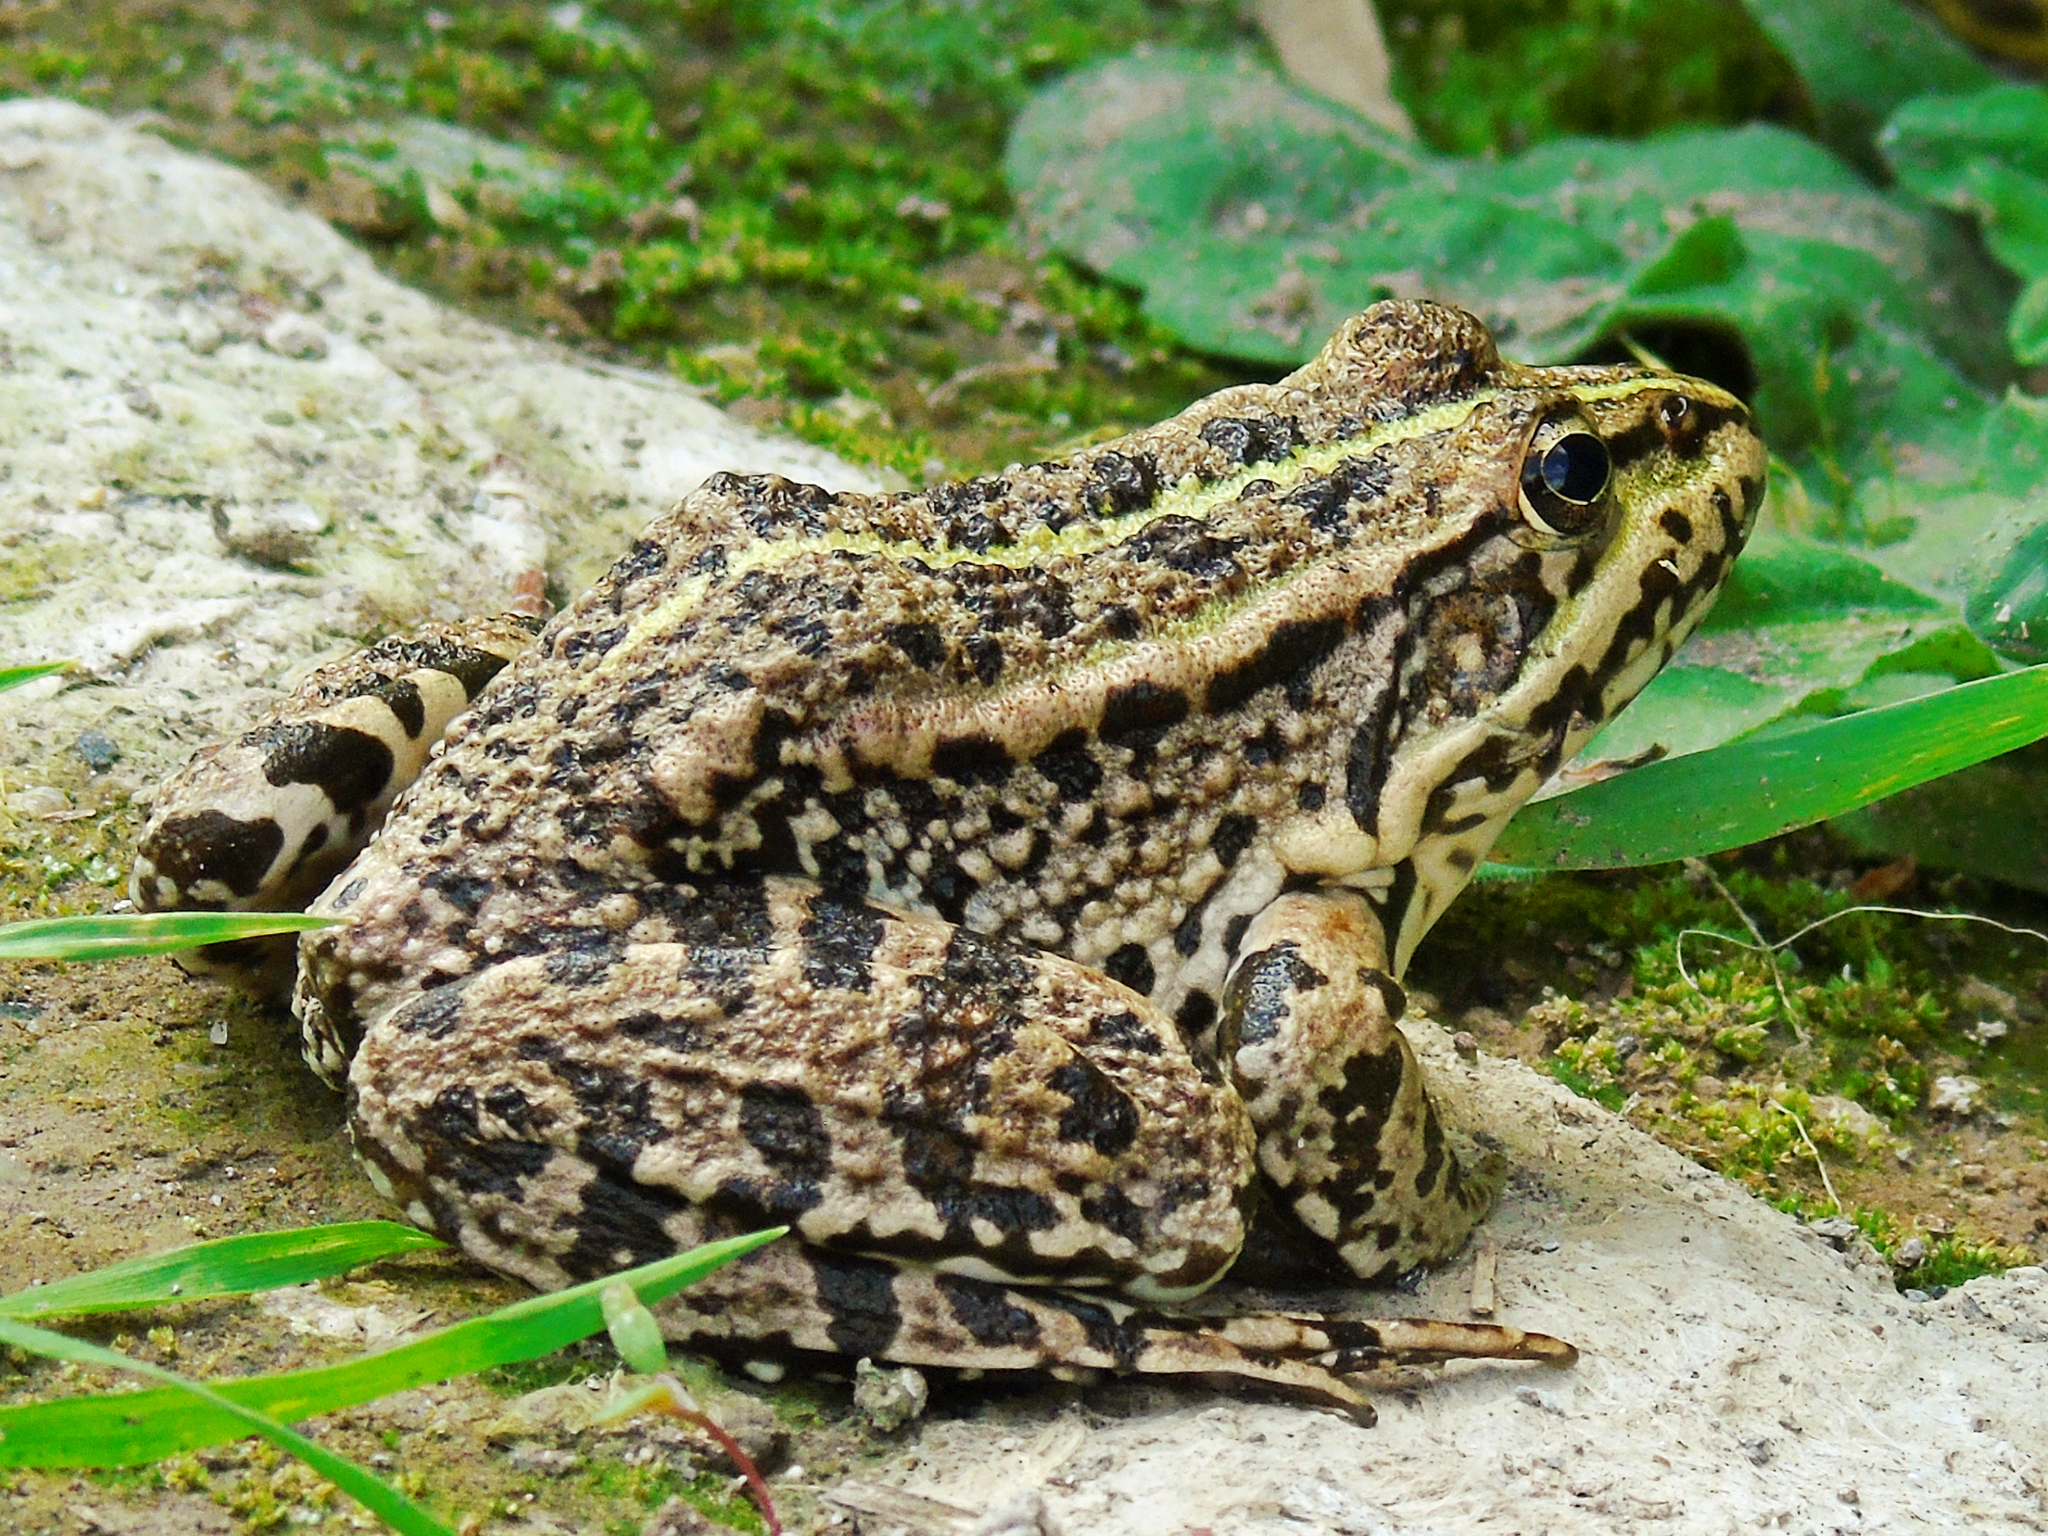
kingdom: Animalia
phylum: Chordata
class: Amphibia
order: Anura
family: Ranidae
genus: Pelophylax
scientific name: Pelophylax ridibundus
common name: Marsh frog
